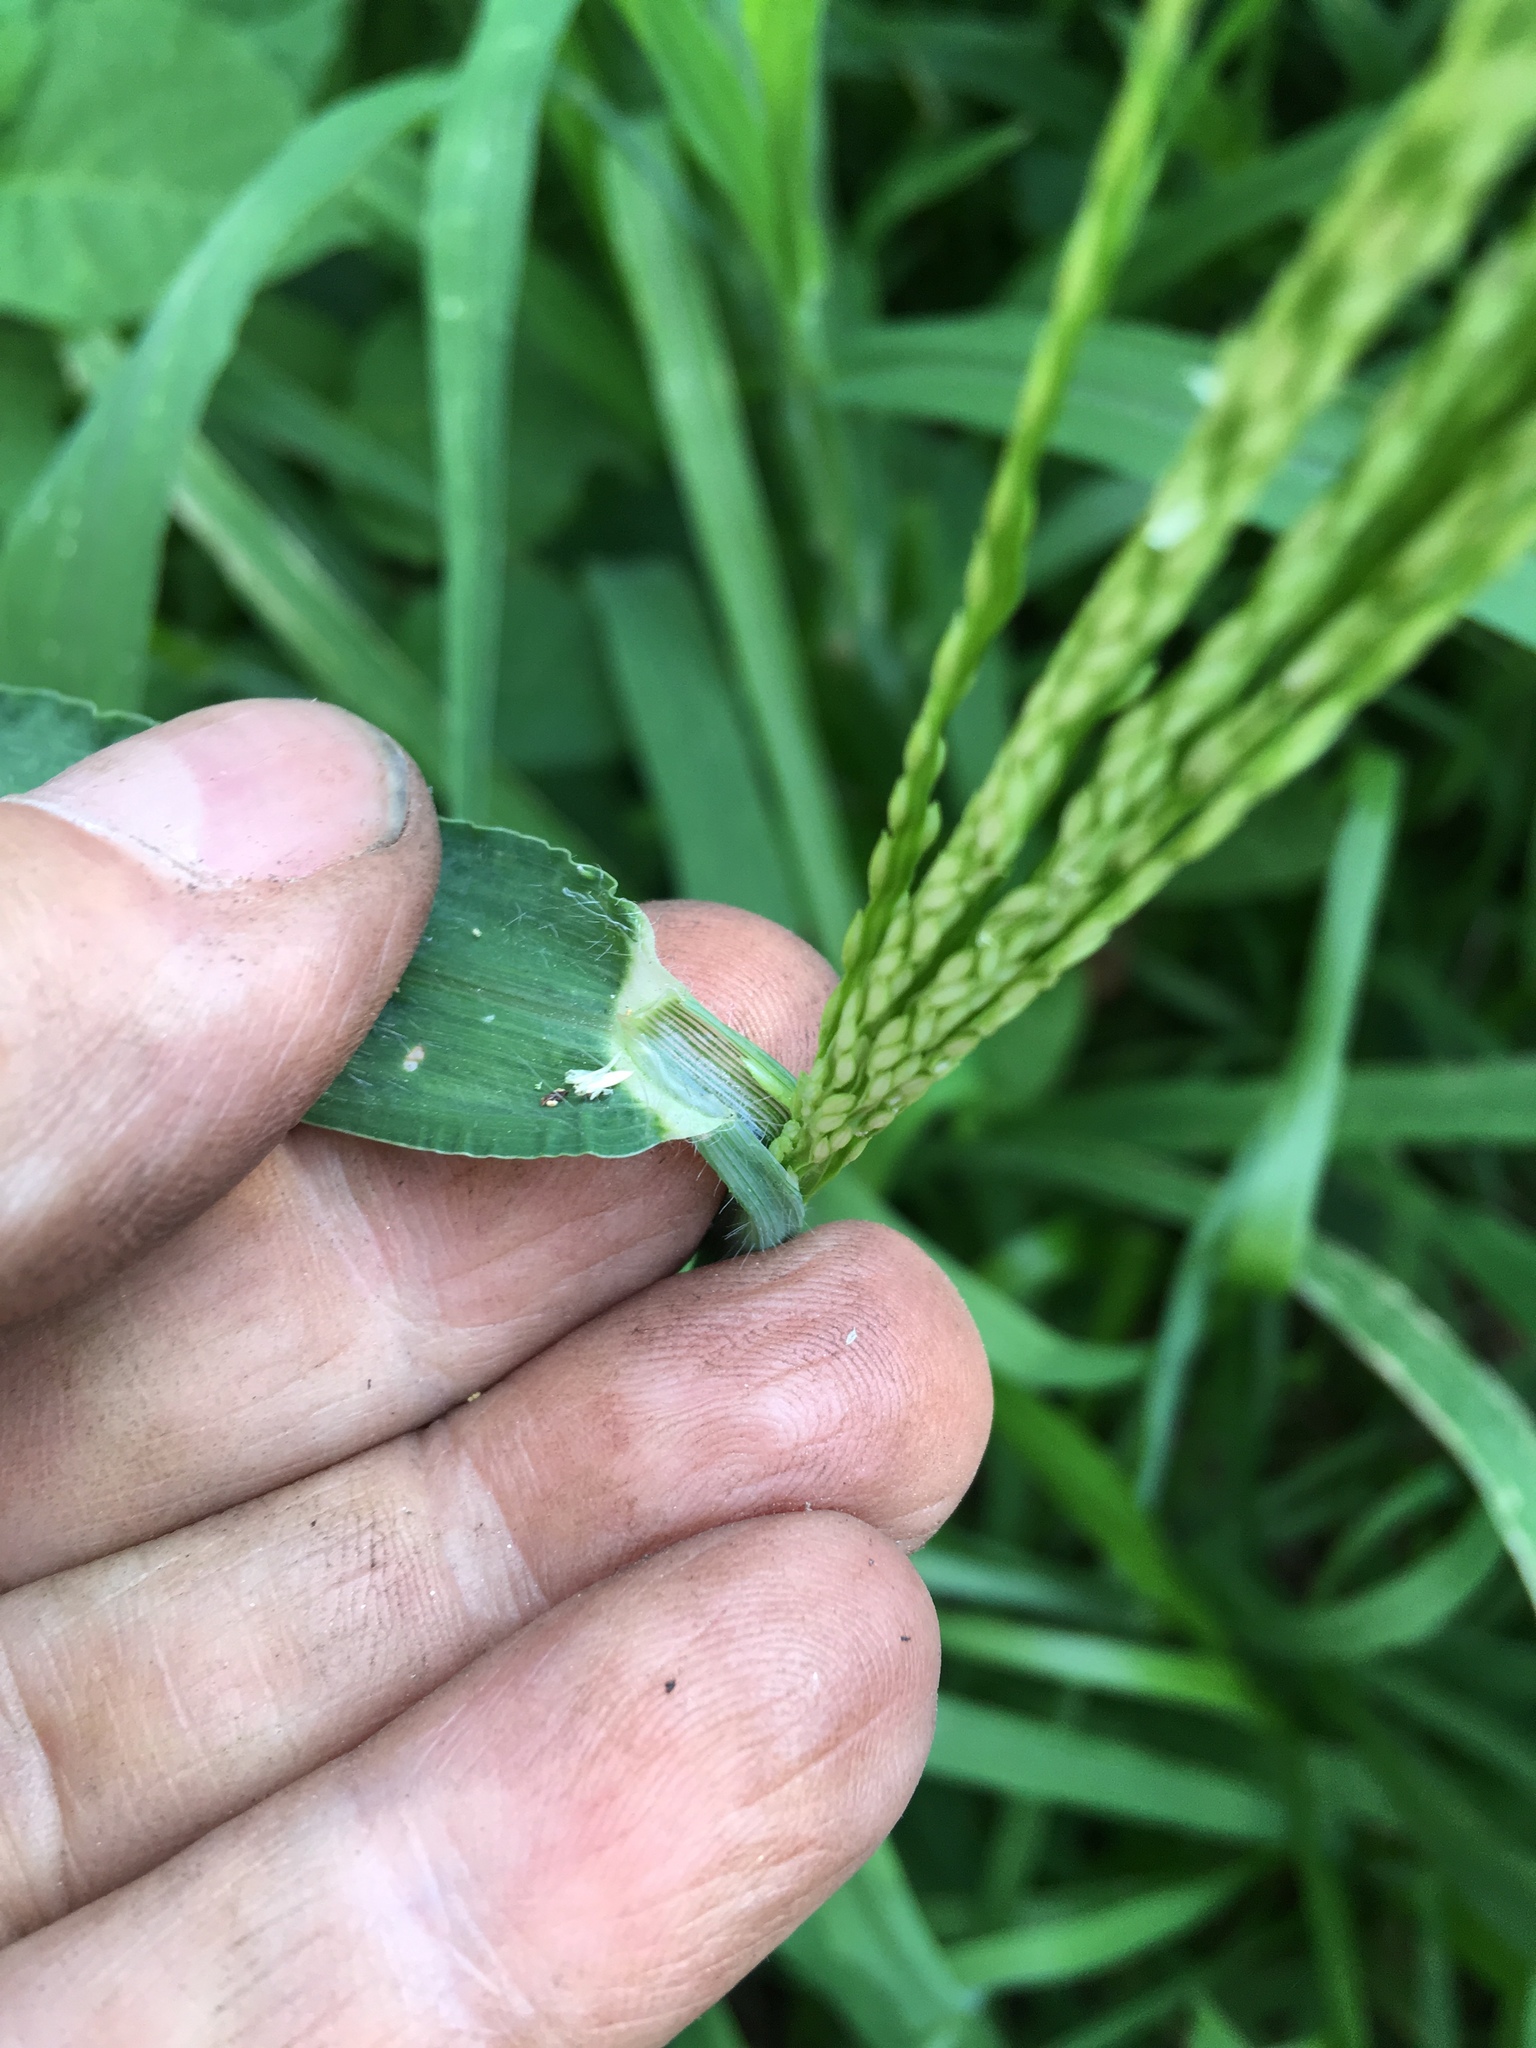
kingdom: Plantae
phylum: Tracheophyta
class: Liliopsida
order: Poales
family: Poaceae
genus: Digitaria
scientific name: Digitaria sanguinalis
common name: Hairy crabgrass
